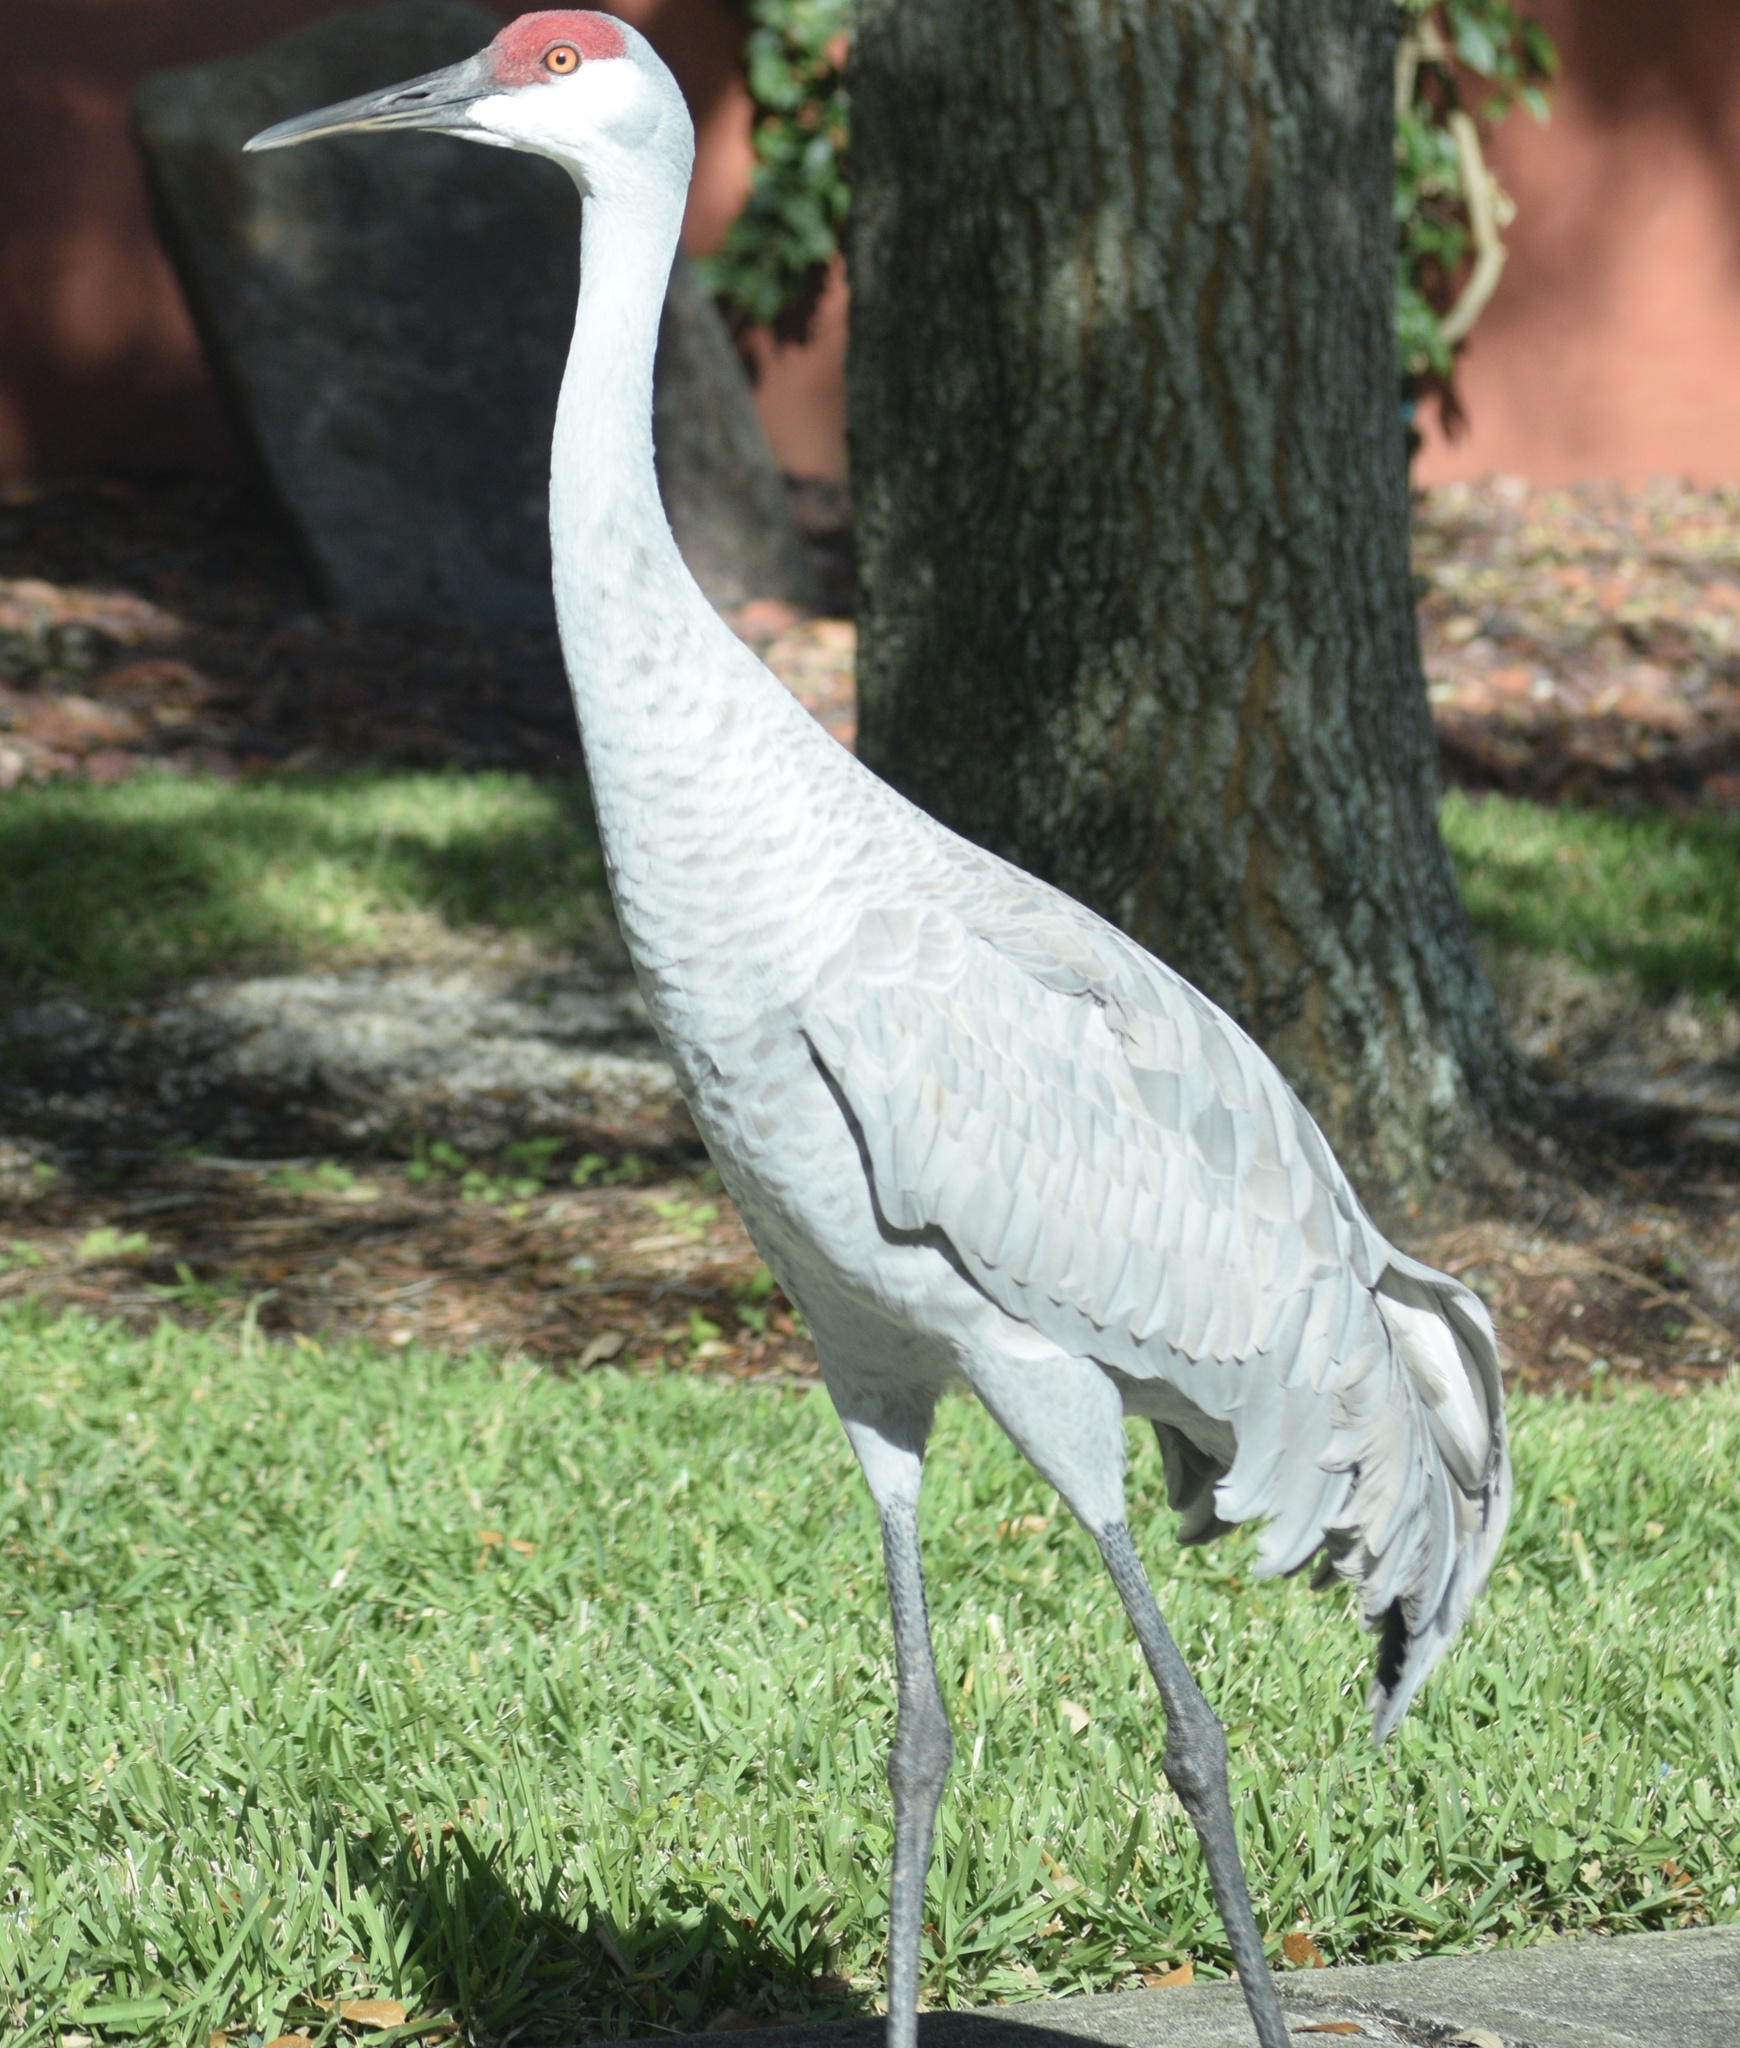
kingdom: Animalia
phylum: Chordata
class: Aves
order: Gruiformes
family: Gruidae
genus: Grus
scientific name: Grus canadensis
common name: Sandhill crane
